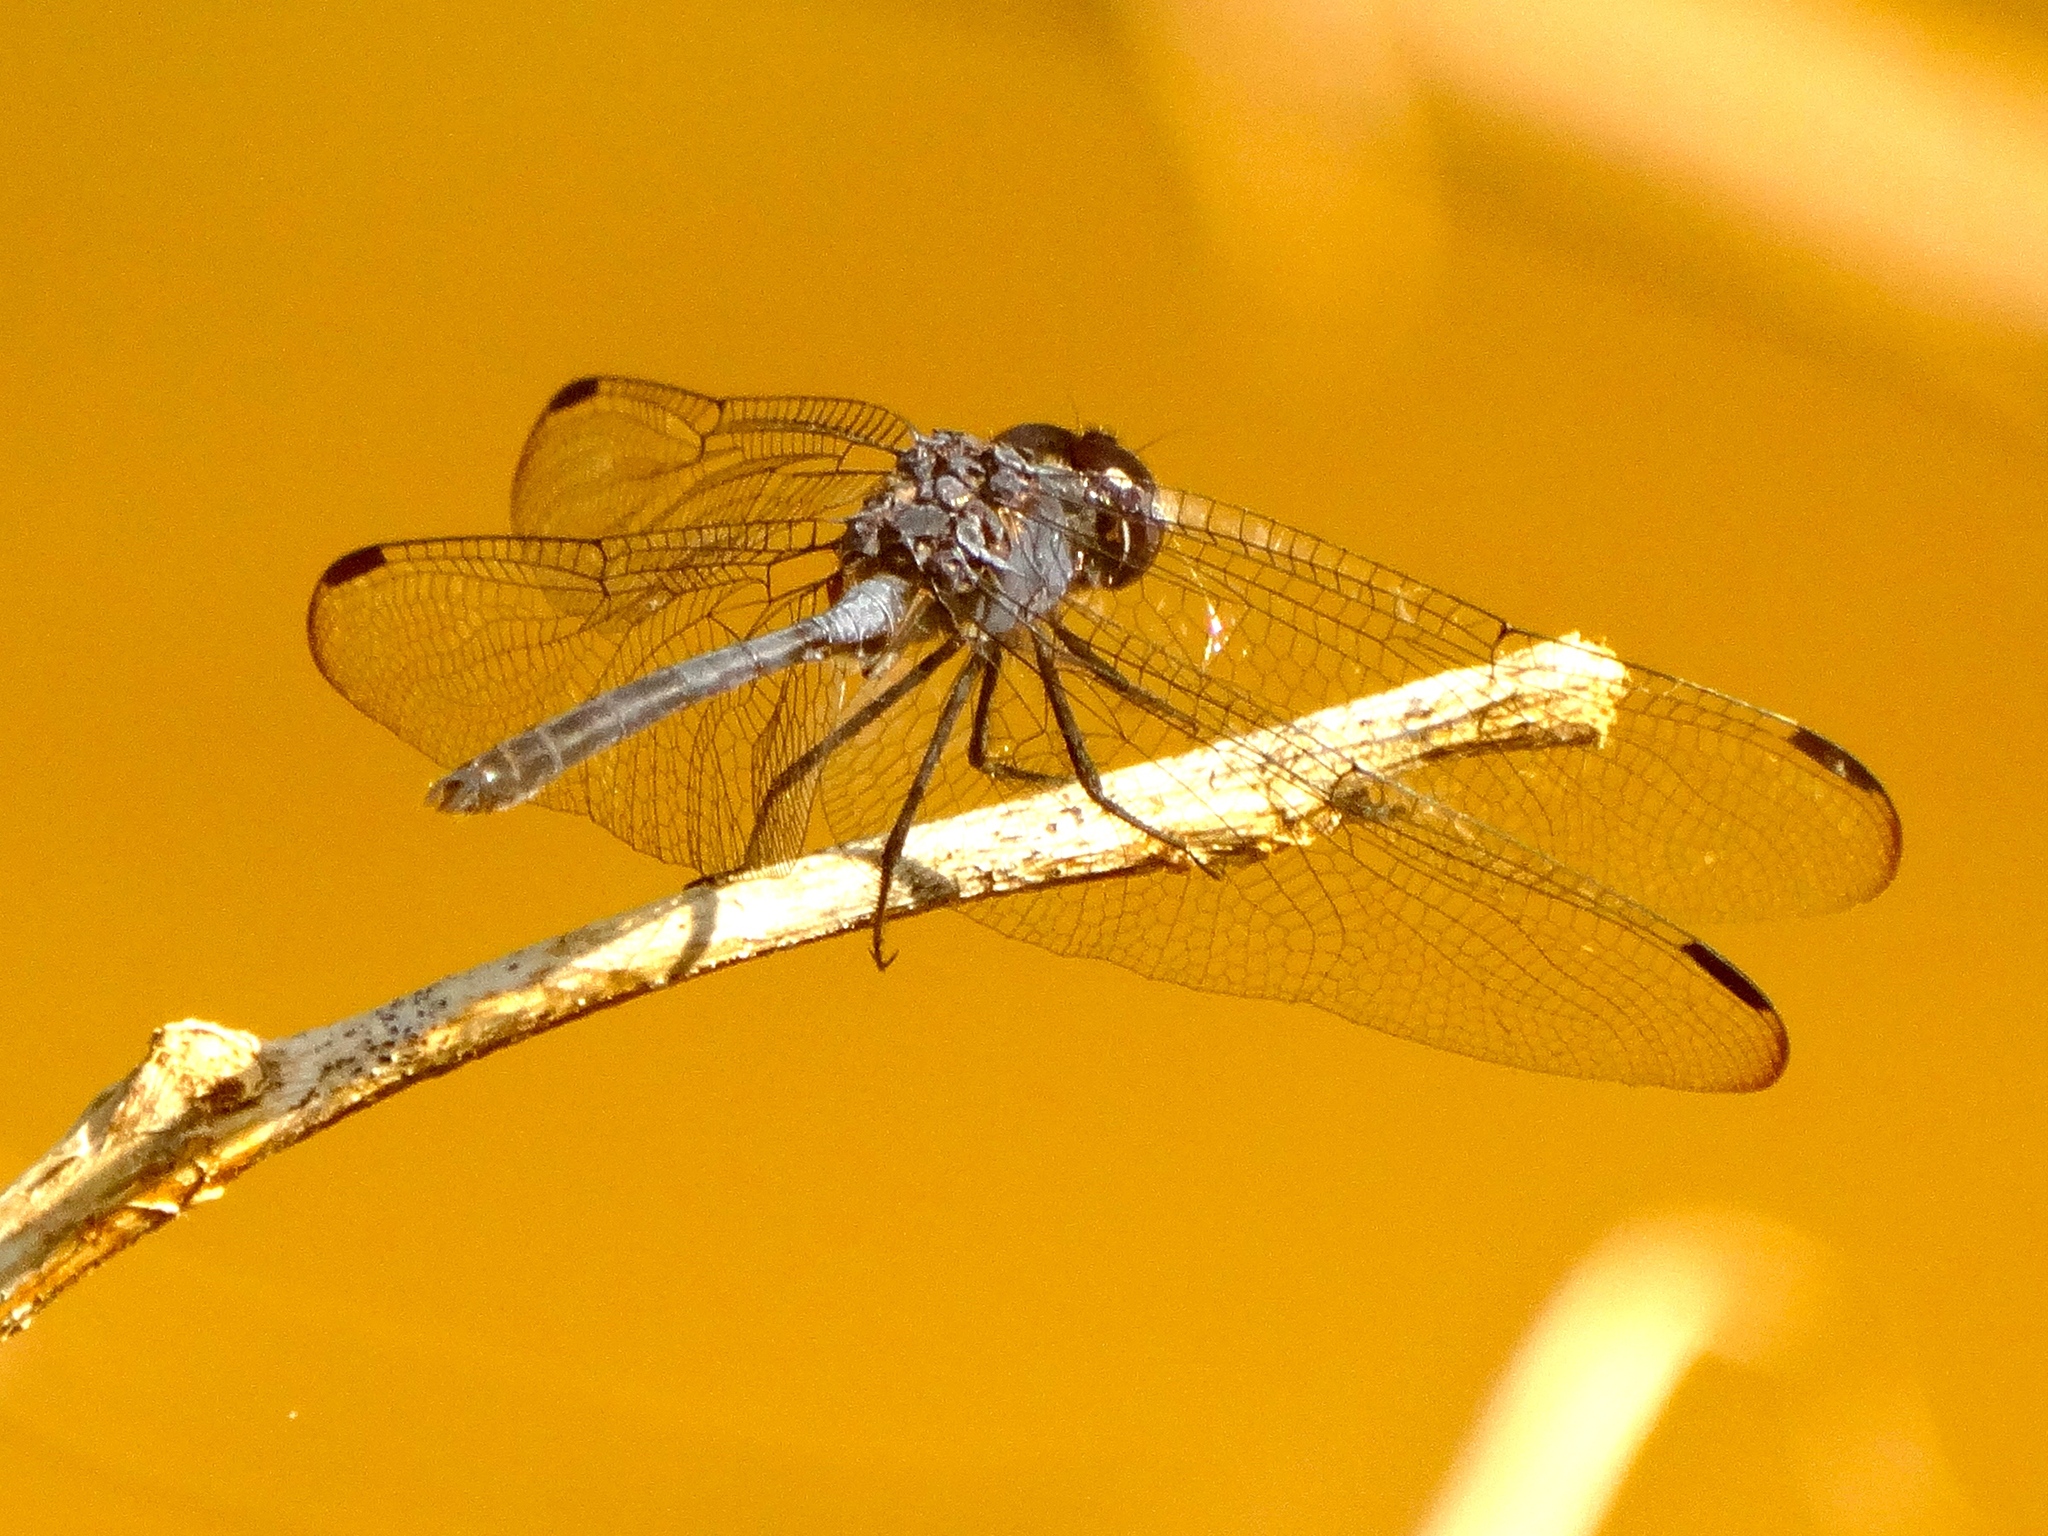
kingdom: Animalia
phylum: Arthropoda
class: Insecta
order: Odonata
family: Libellulidae
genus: Dythemis
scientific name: Dythemis nigrescens
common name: Black setwing
